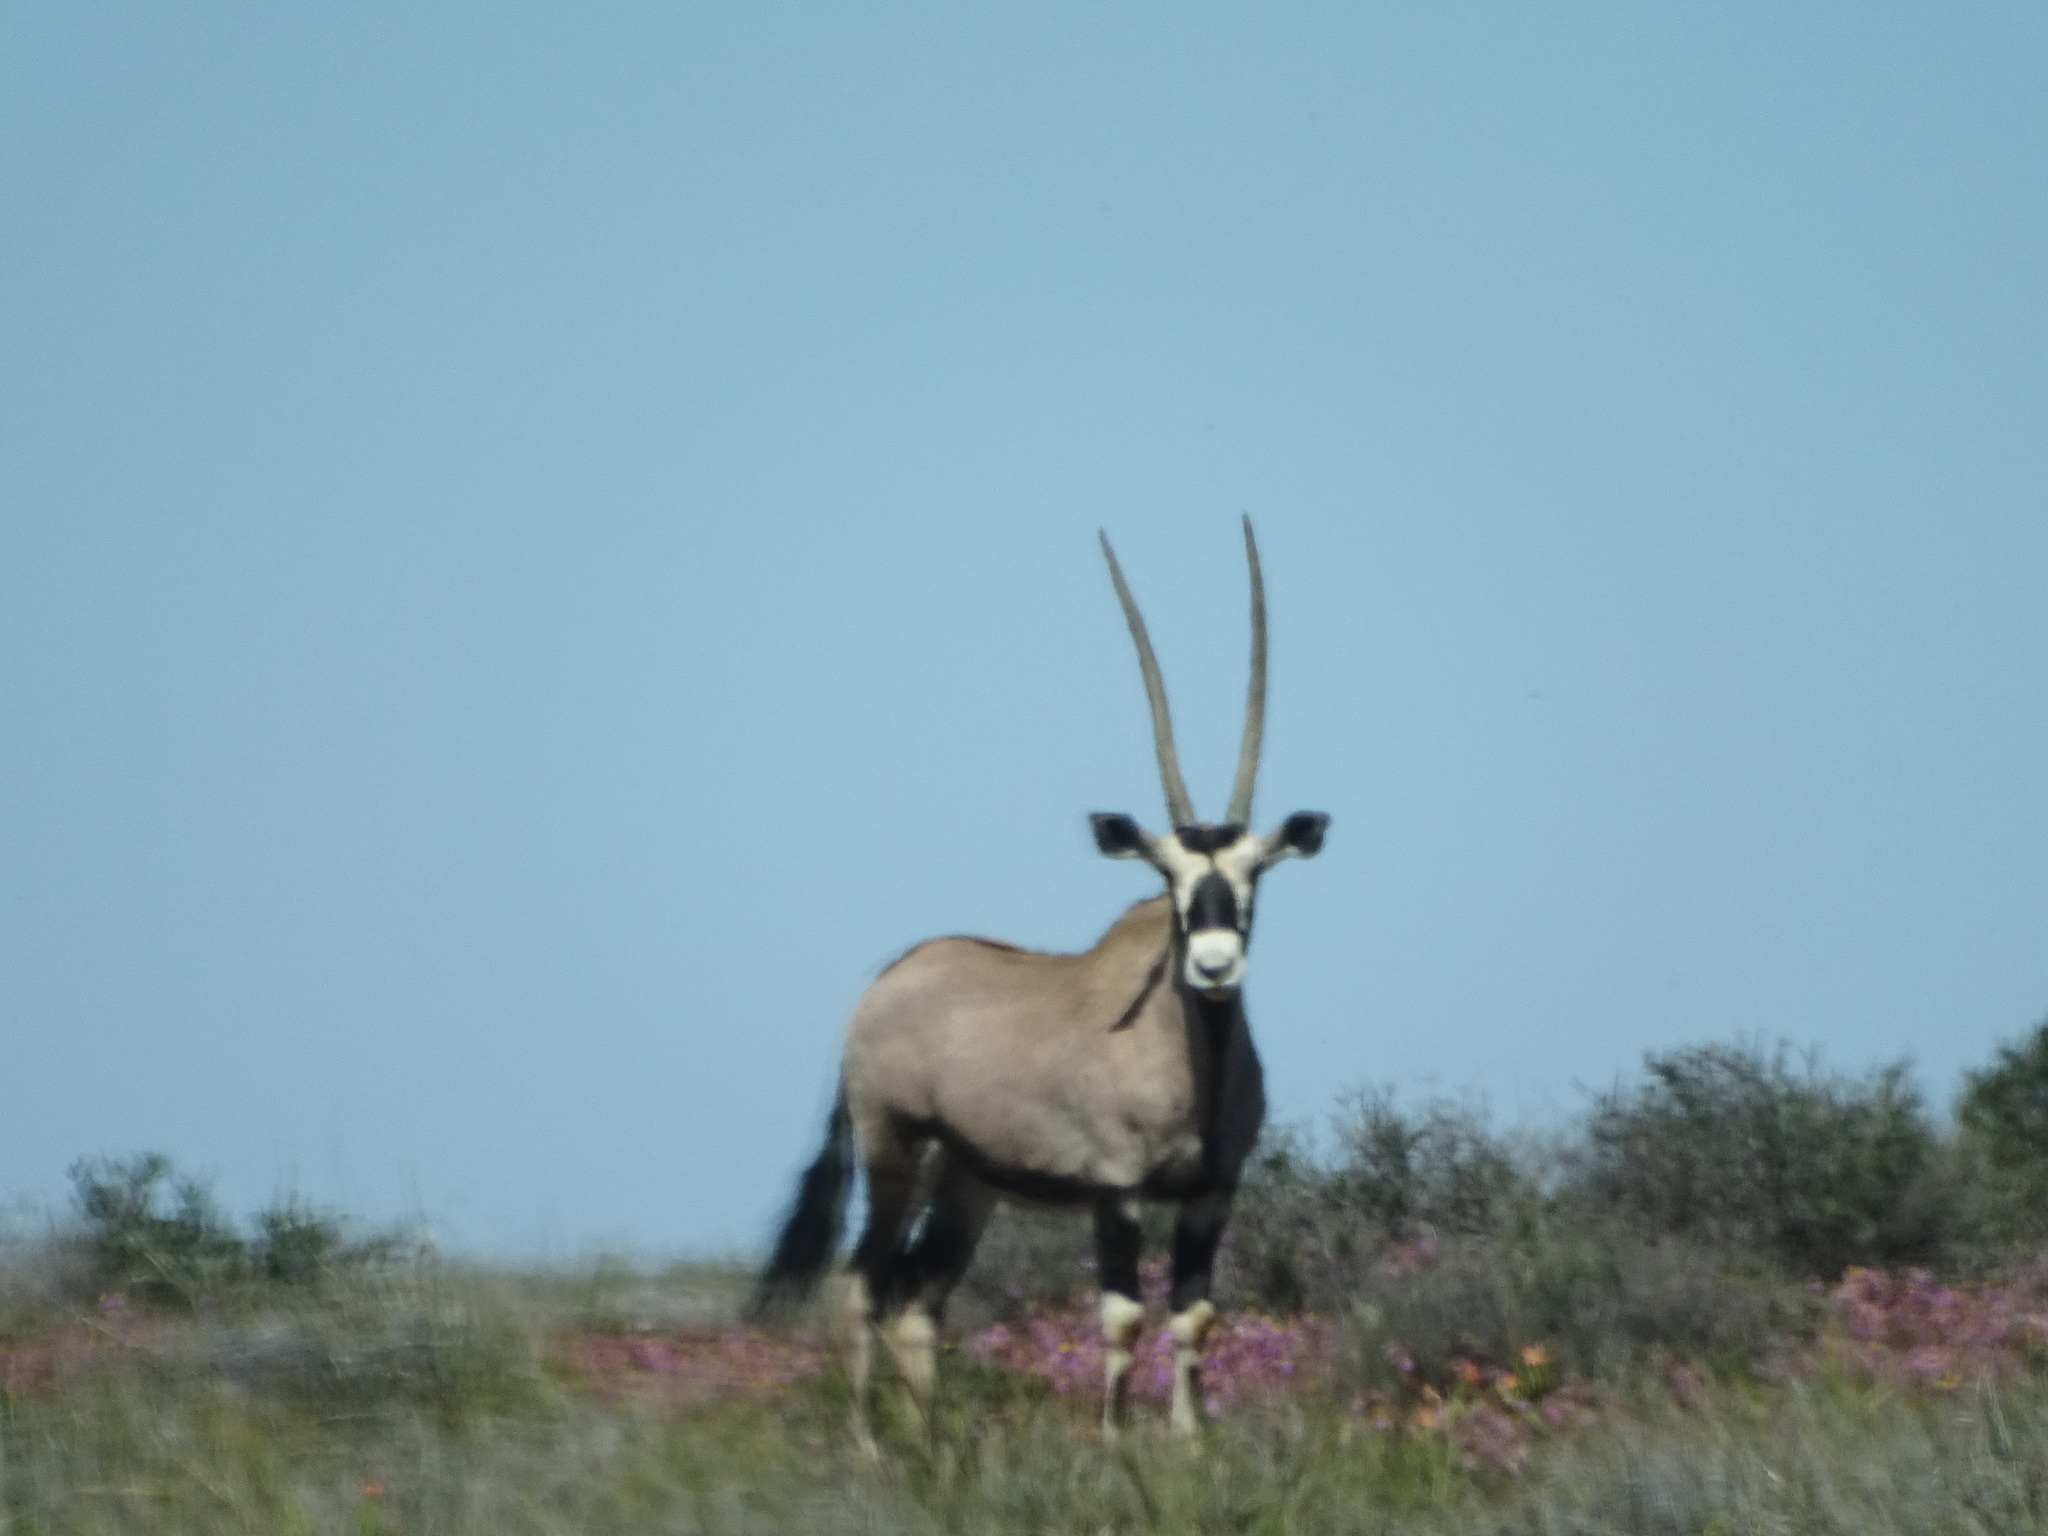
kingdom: Animalia
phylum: Chordata
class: Mammalia
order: Artiodactyla
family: Bovidae
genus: Oryx
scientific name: Oryx gazella
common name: Gemsbok
